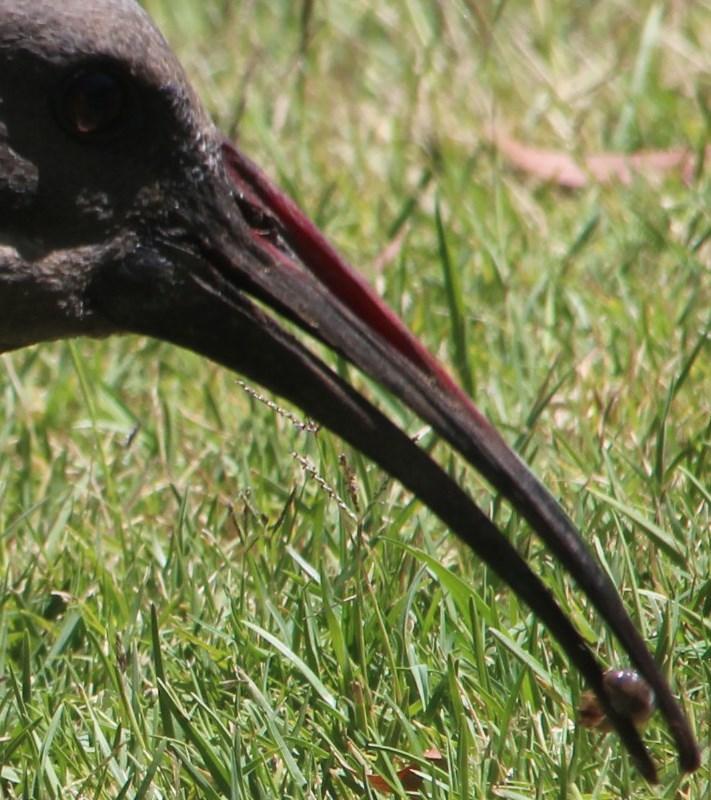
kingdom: Animalia
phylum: Chordata
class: Aves
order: Pelecaniformes
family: Threskiornithidae
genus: Bostrychia
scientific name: Bostrychia hagedash
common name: Hadada ibis
